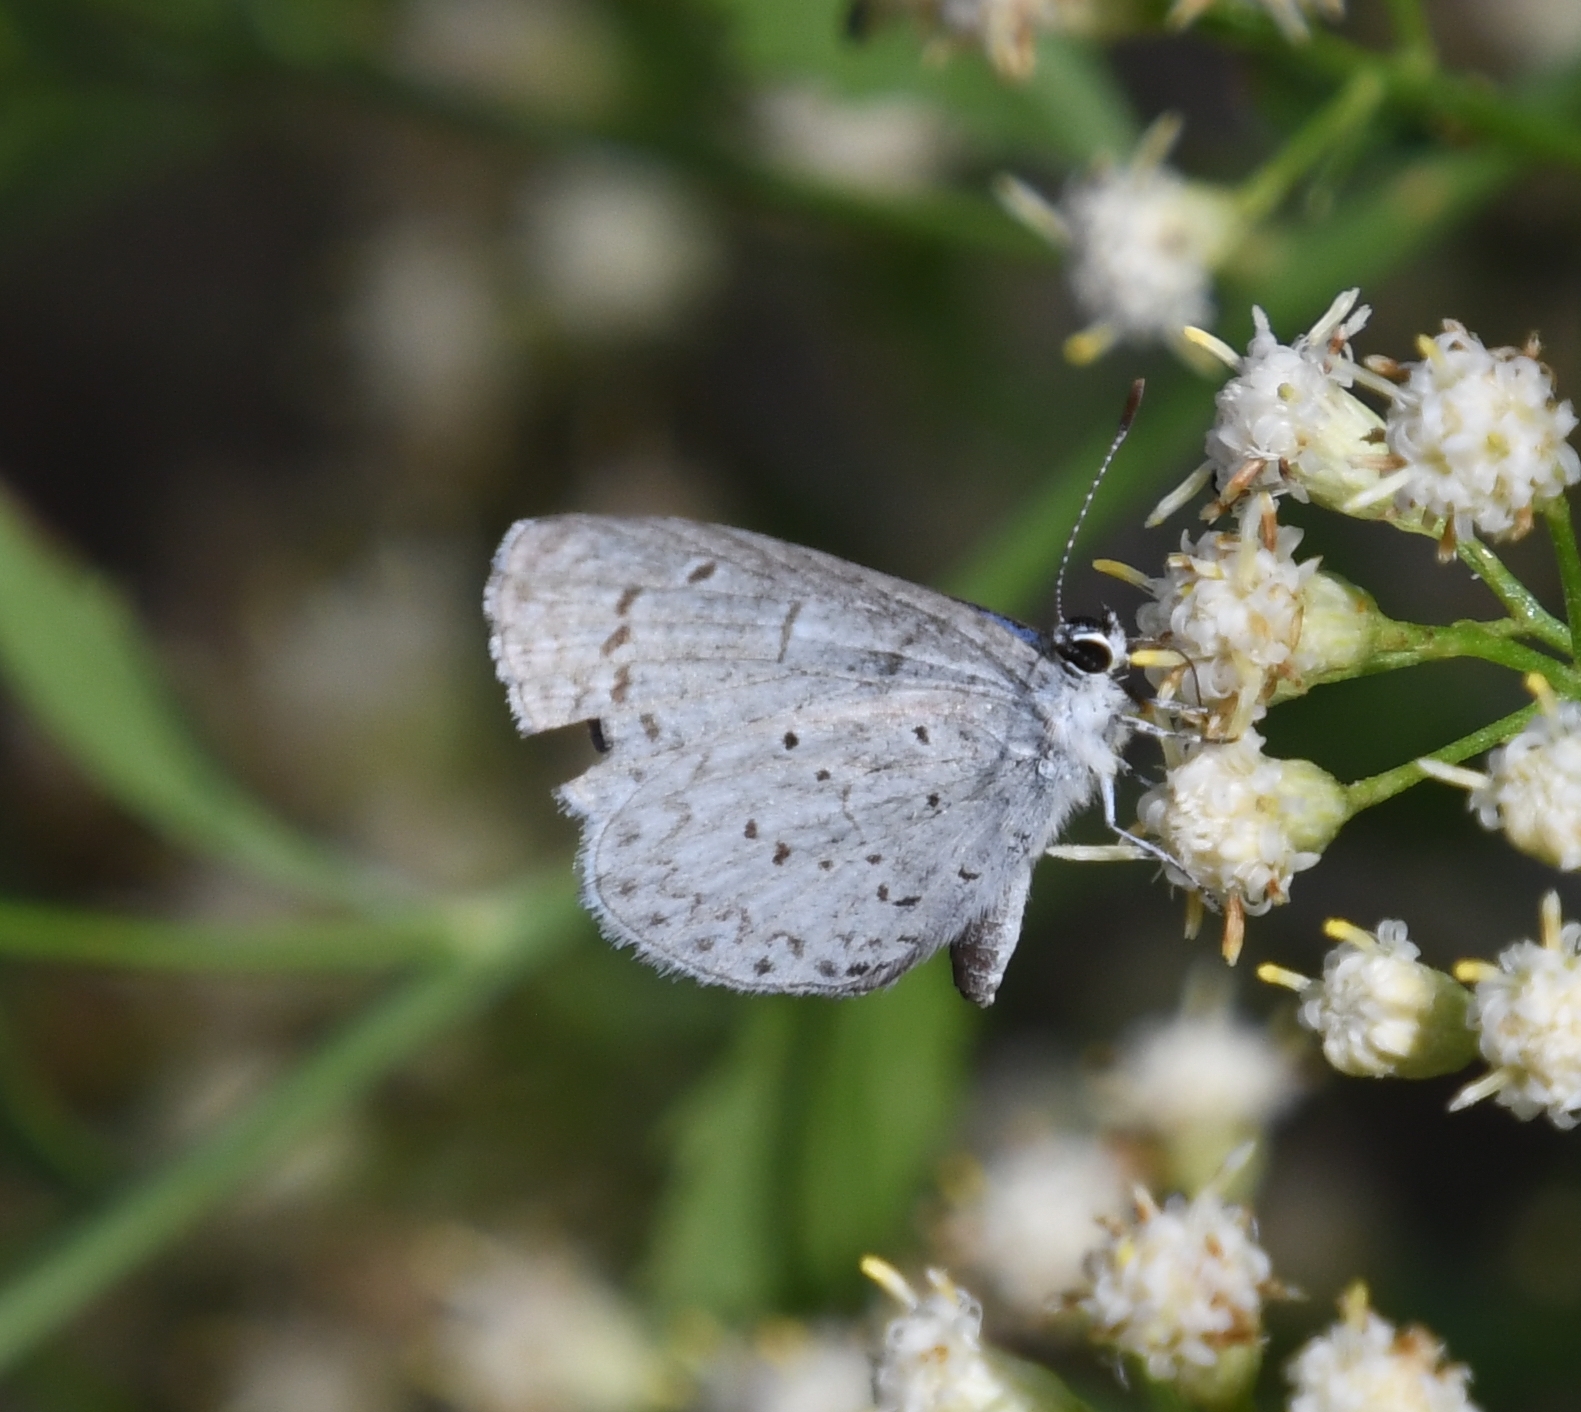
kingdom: Animalia
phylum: Arthropoda
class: Insecta
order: Lepidoptera
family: Lycaenidae
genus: Celastrina
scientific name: Celastrina ladon
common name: Spring azure
